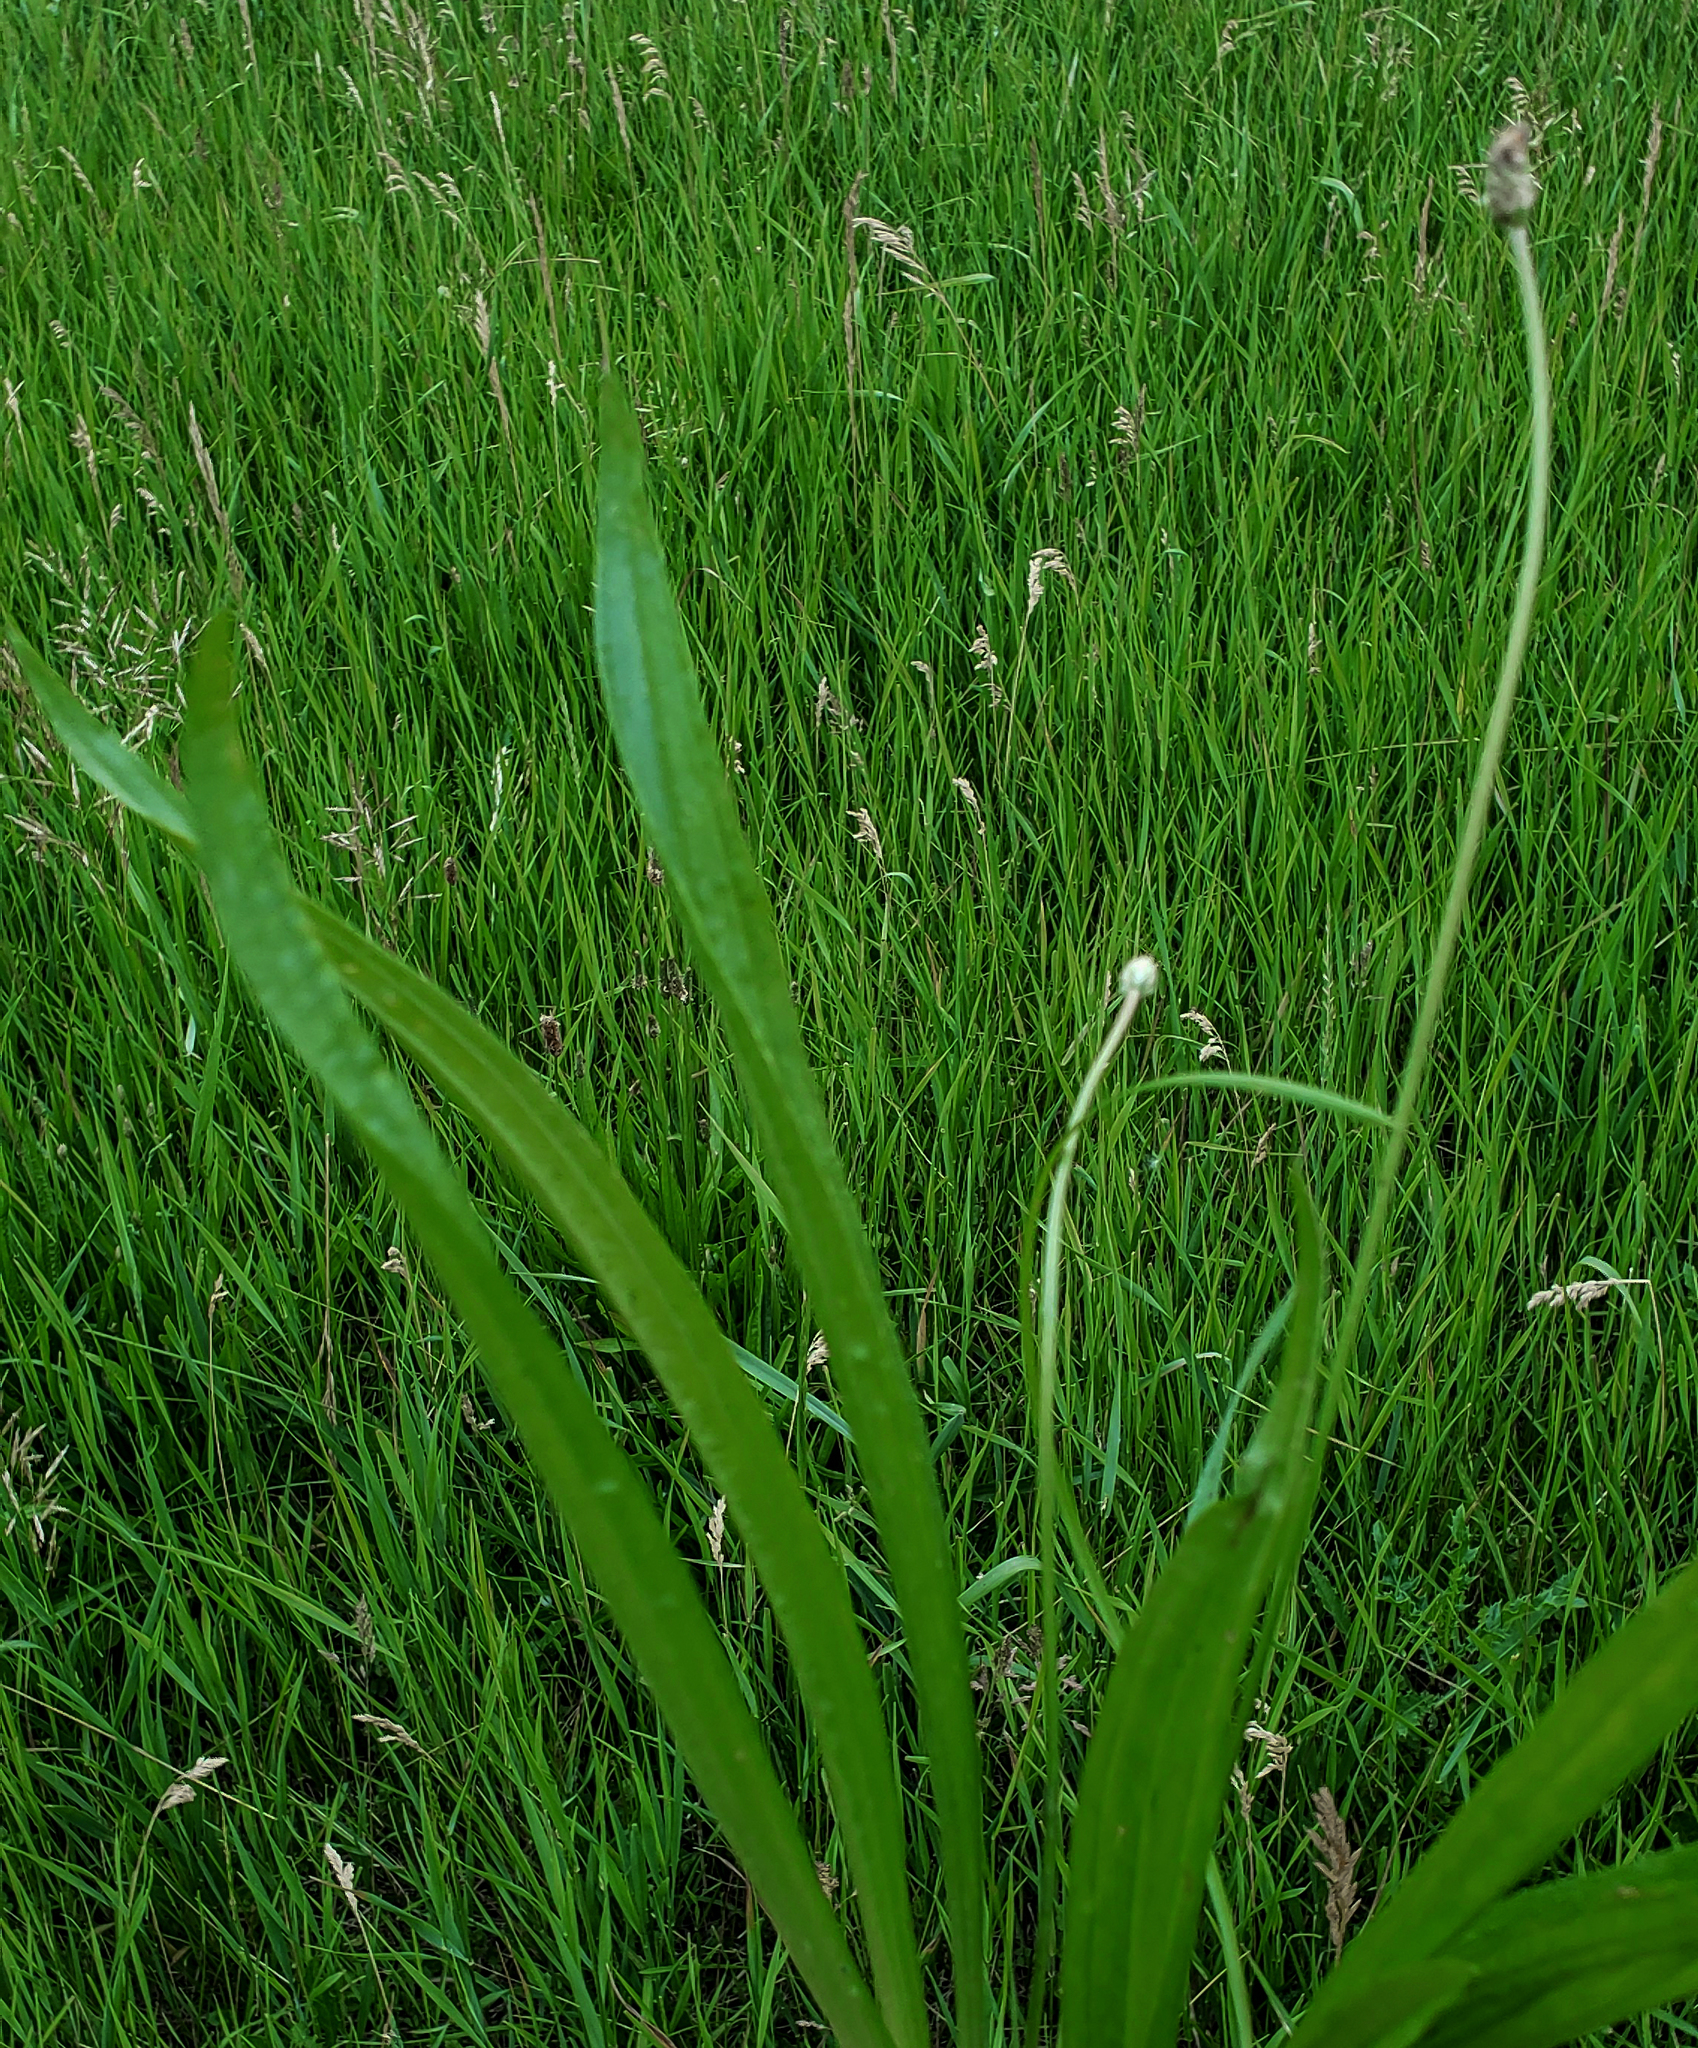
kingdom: Plantae
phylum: Tracheophyta
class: Magnoliopsida
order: Lamiales
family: Plantaginaceae
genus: Plantago
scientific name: Plantago lanceolata
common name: Ribwort plantain
